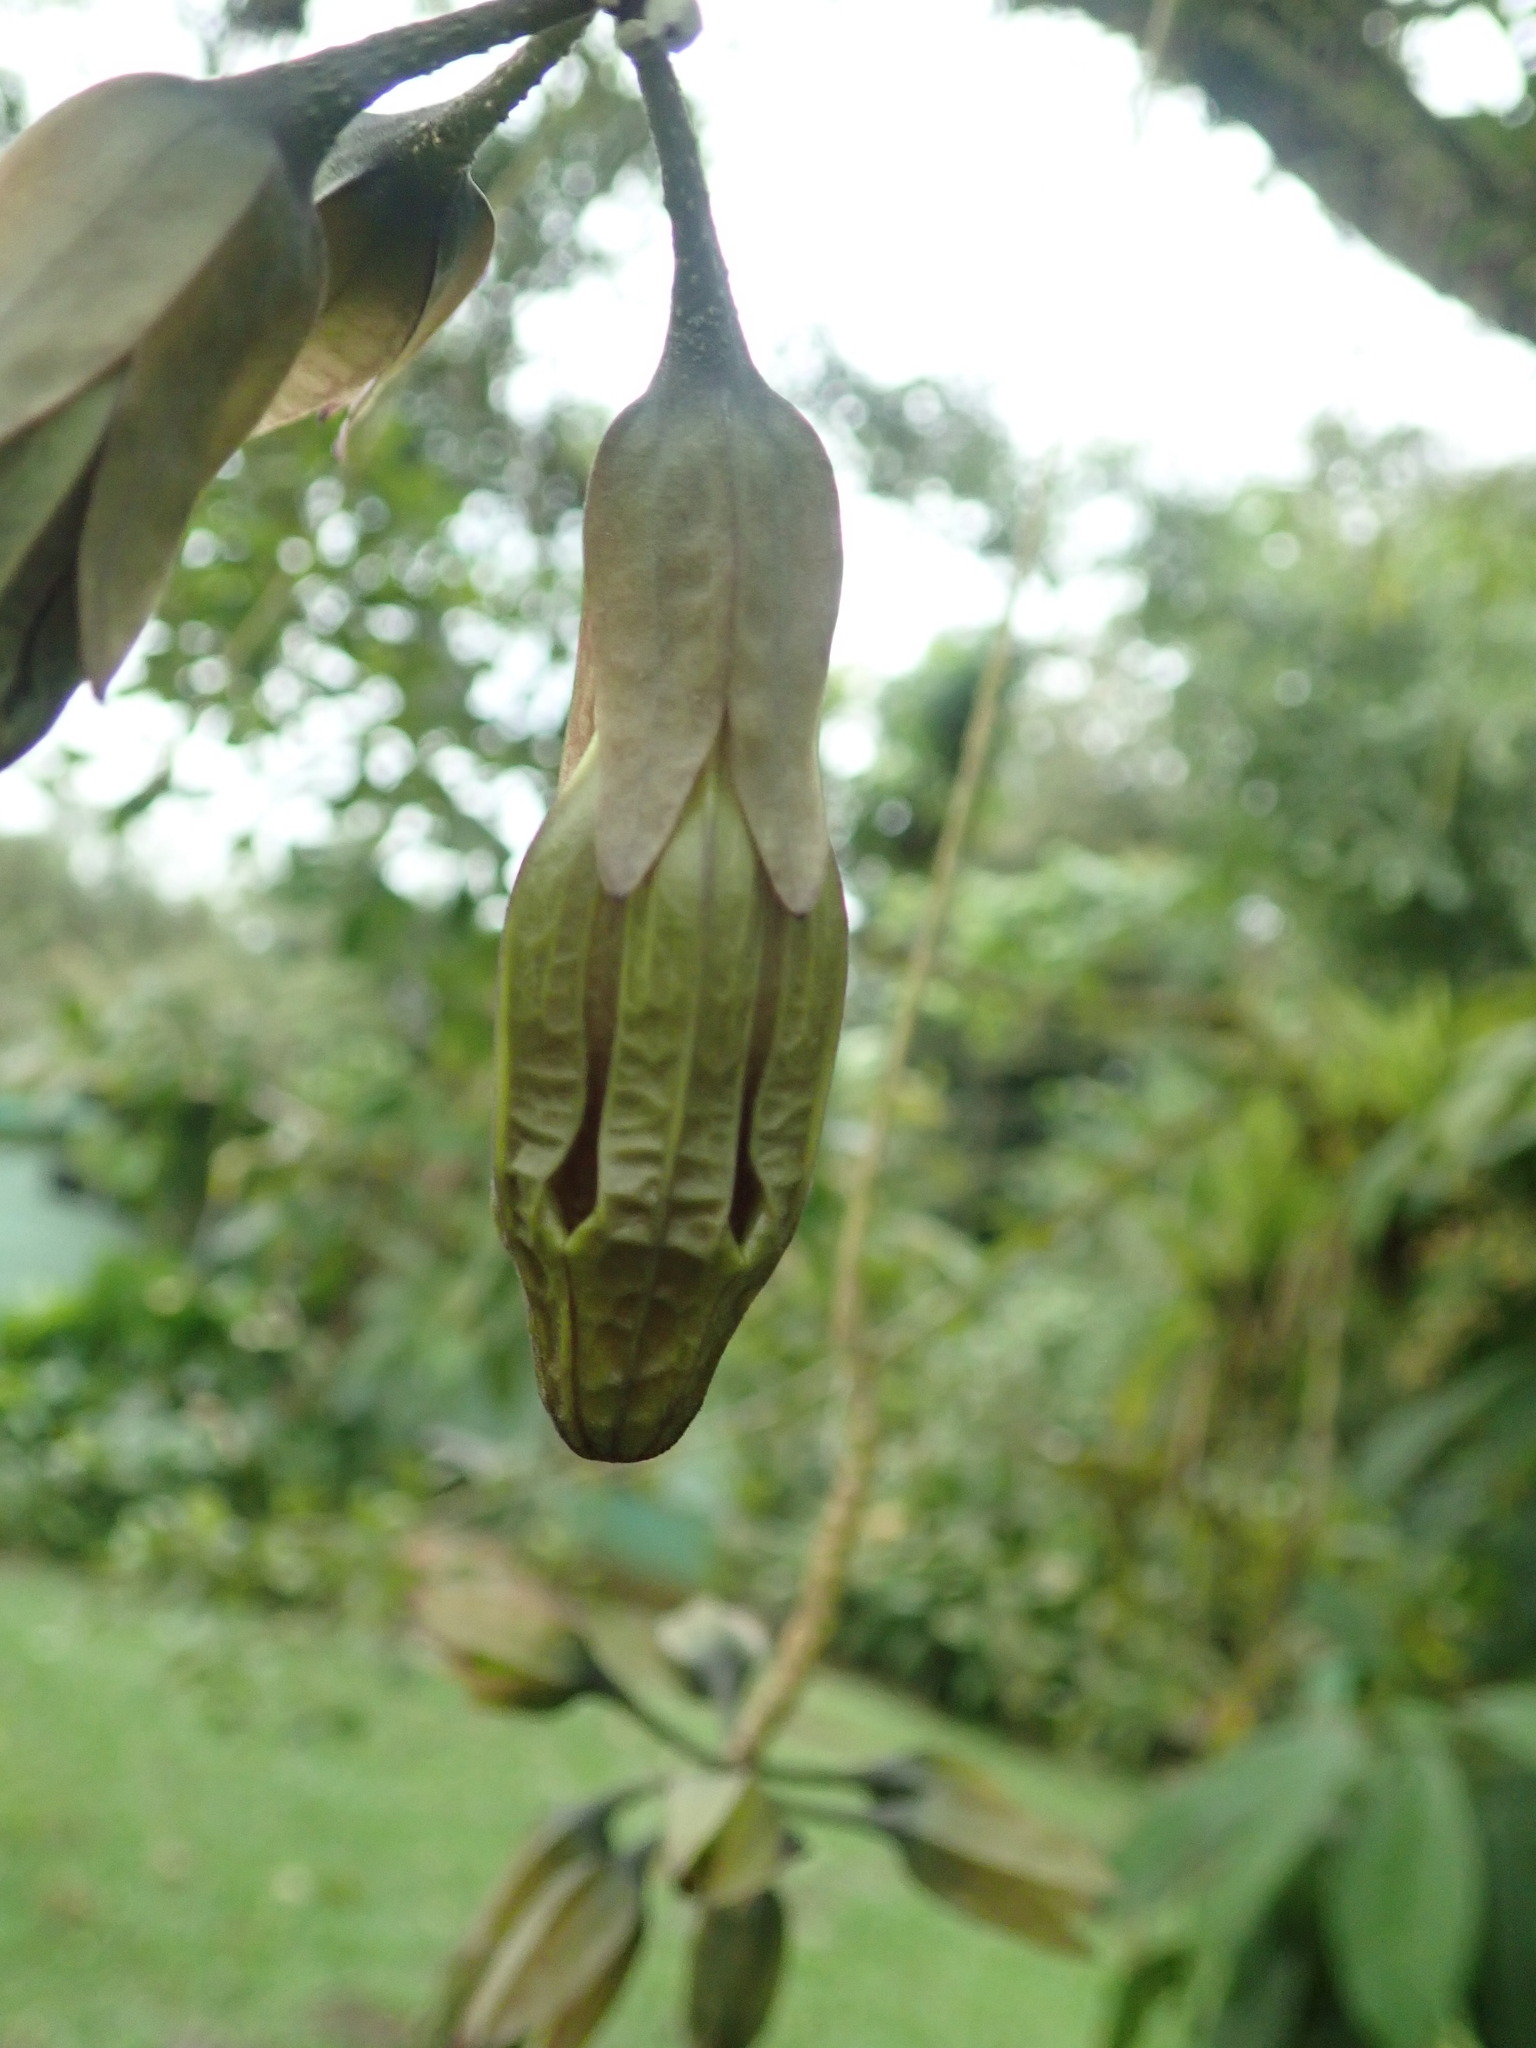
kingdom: Plantae
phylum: Tracheophyta
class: Magnoliopsida
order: Solanales
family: Solanaceae
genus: Merinthopodium
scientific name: Merinthopodium neuranthum
